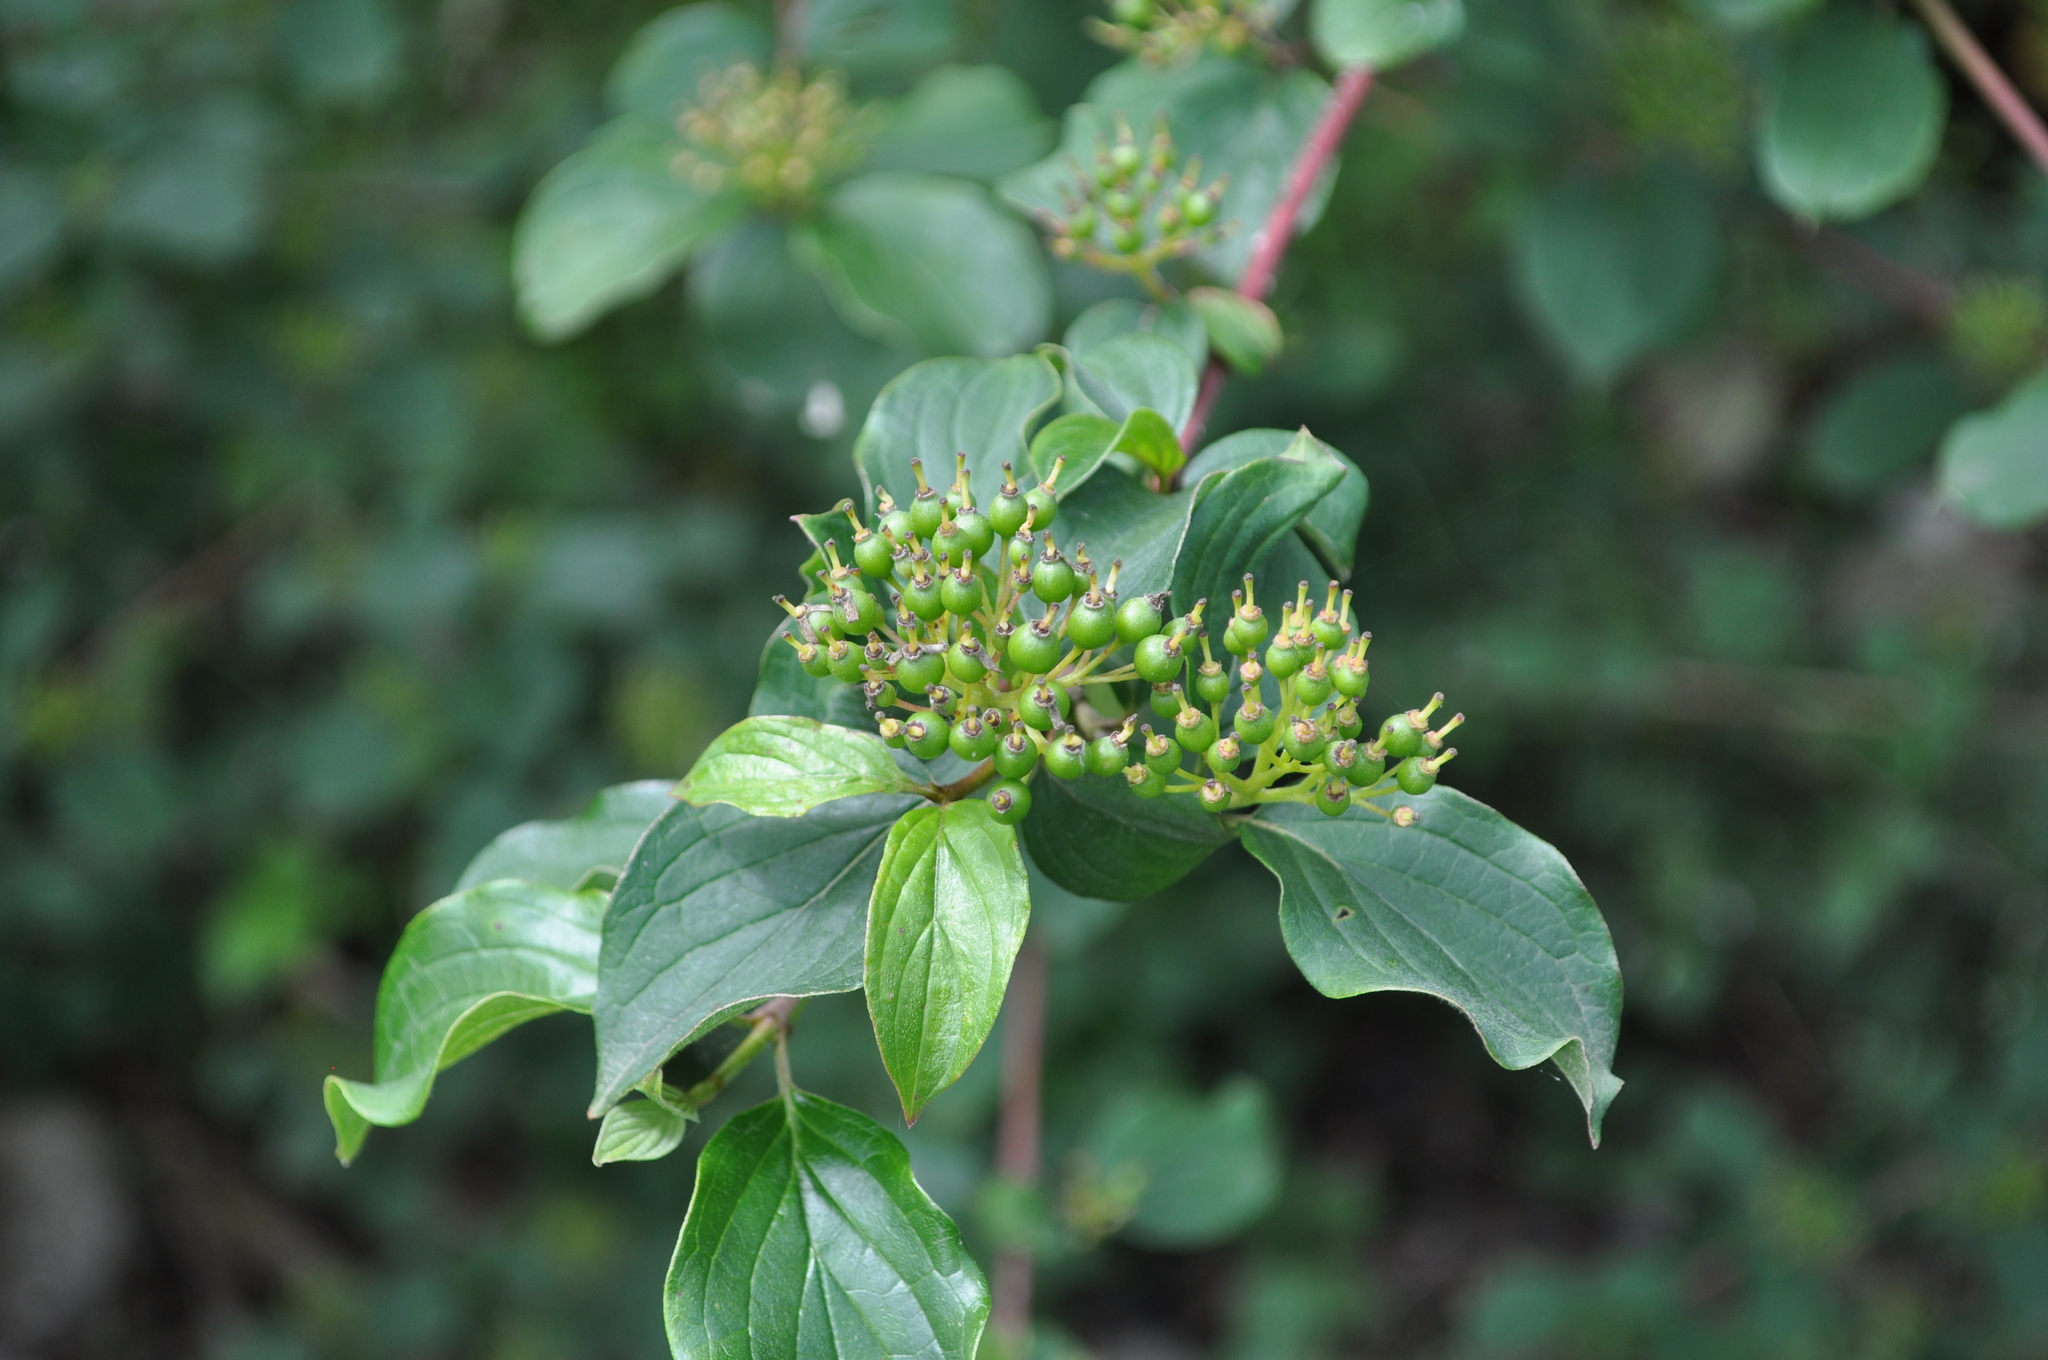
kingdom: Plantae
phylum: Tracheophyta
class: Magnoliopsida
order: Cornales
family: Cornaceae
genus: Cornus
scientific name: Cornus sanguinea
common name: Dogwood
